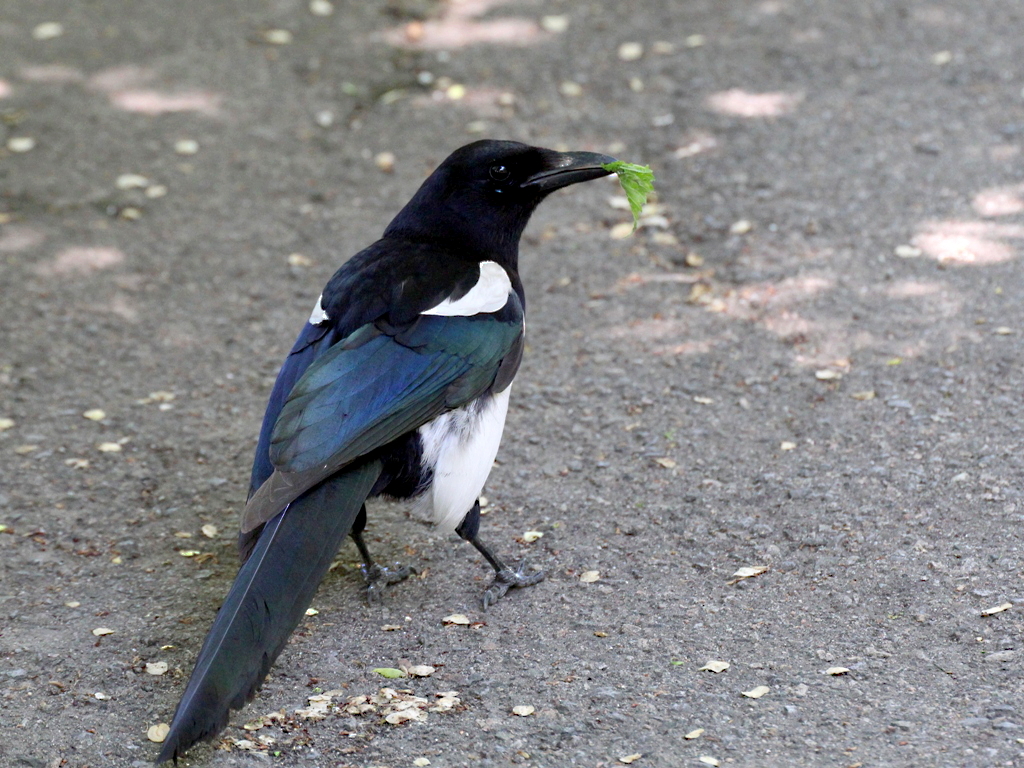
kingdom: Animalia
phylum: Chordata
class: Aves
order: Passeriformes
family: Corvidae
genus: Pica
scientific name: Pica pica
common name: Eurasian magpie
